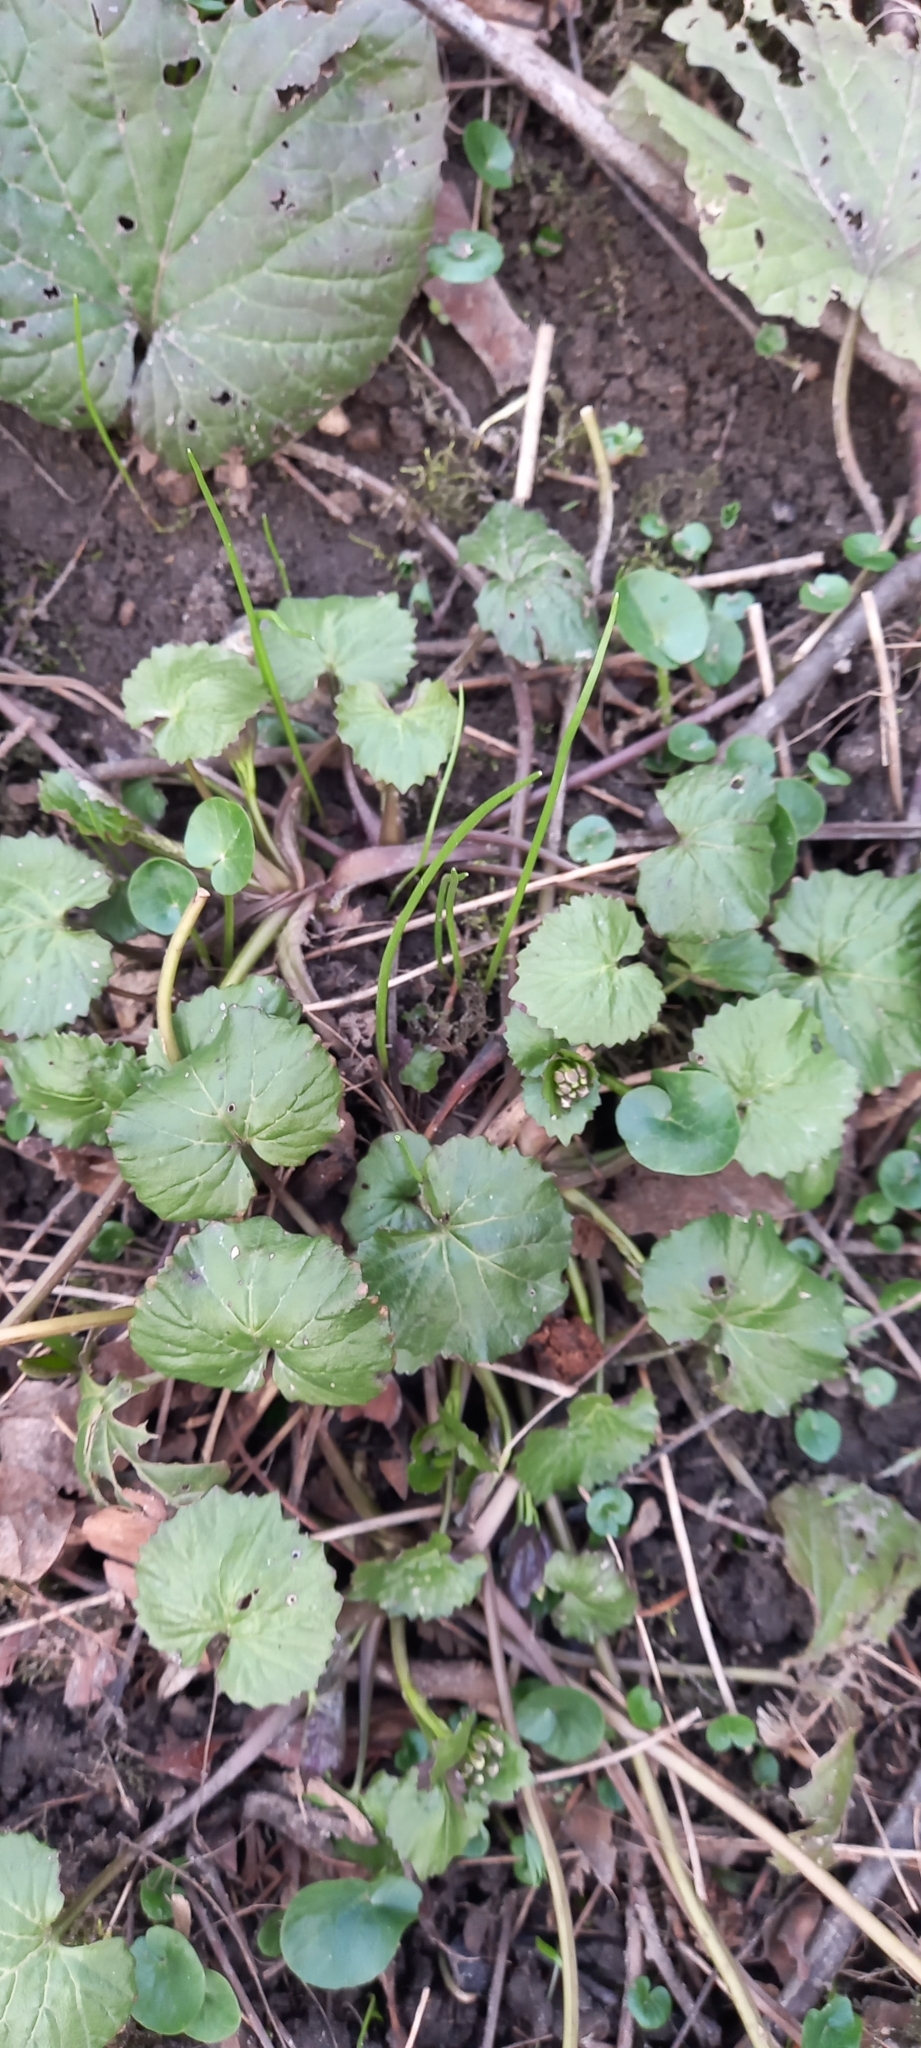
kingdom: Plantae
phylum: Tracheophyta
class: Magnoliopsida
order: Brassicales
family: Brassicaceae
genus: Alliaria
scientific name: Alliaria petiolata
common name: Garlic mustard
